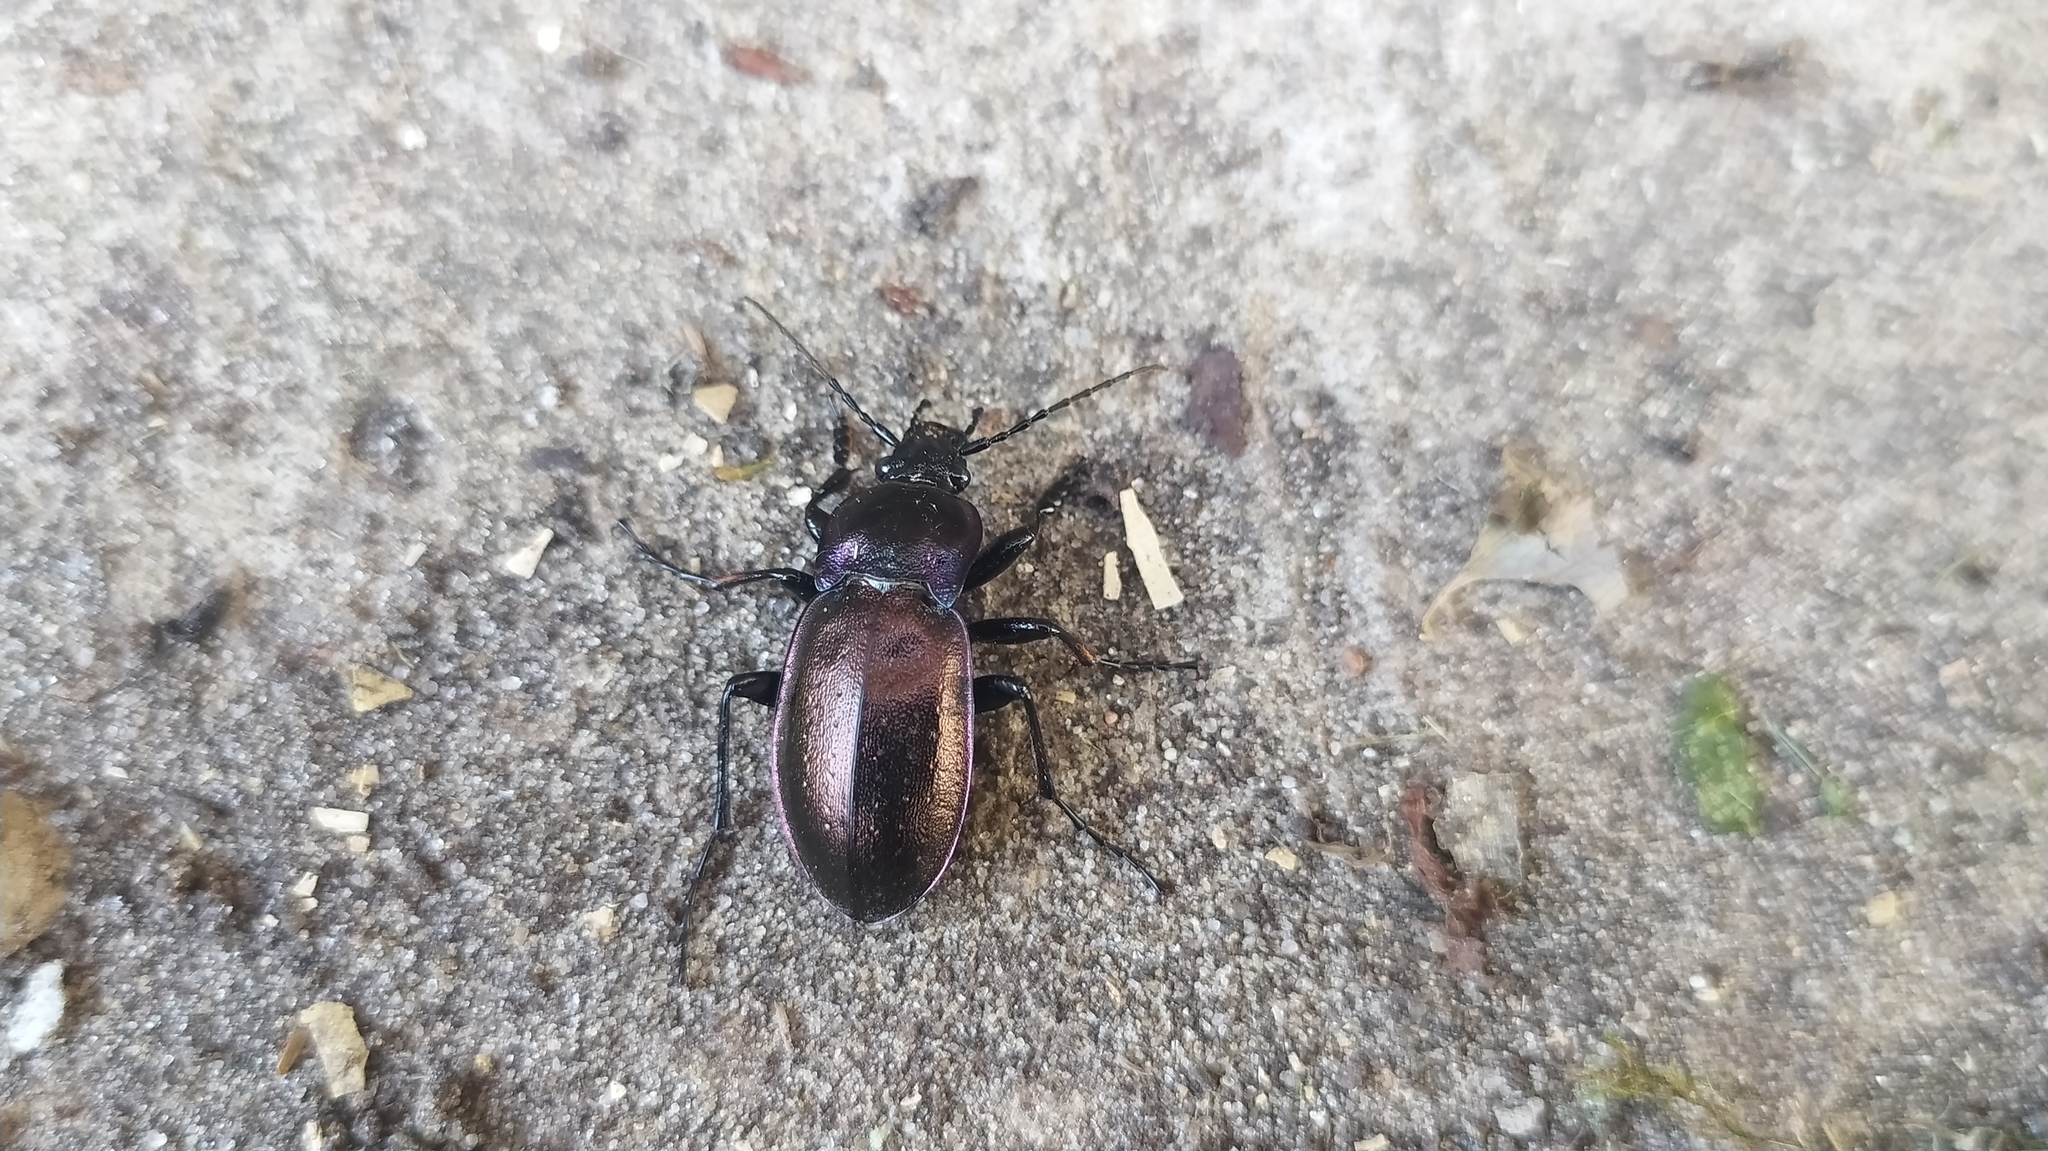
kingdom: Animalia
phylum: Arthropoda
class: Insecta
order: Coleoptera
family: Carabidae
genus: Carabus
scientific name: Carabus nemoralis
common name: European ground beetle
